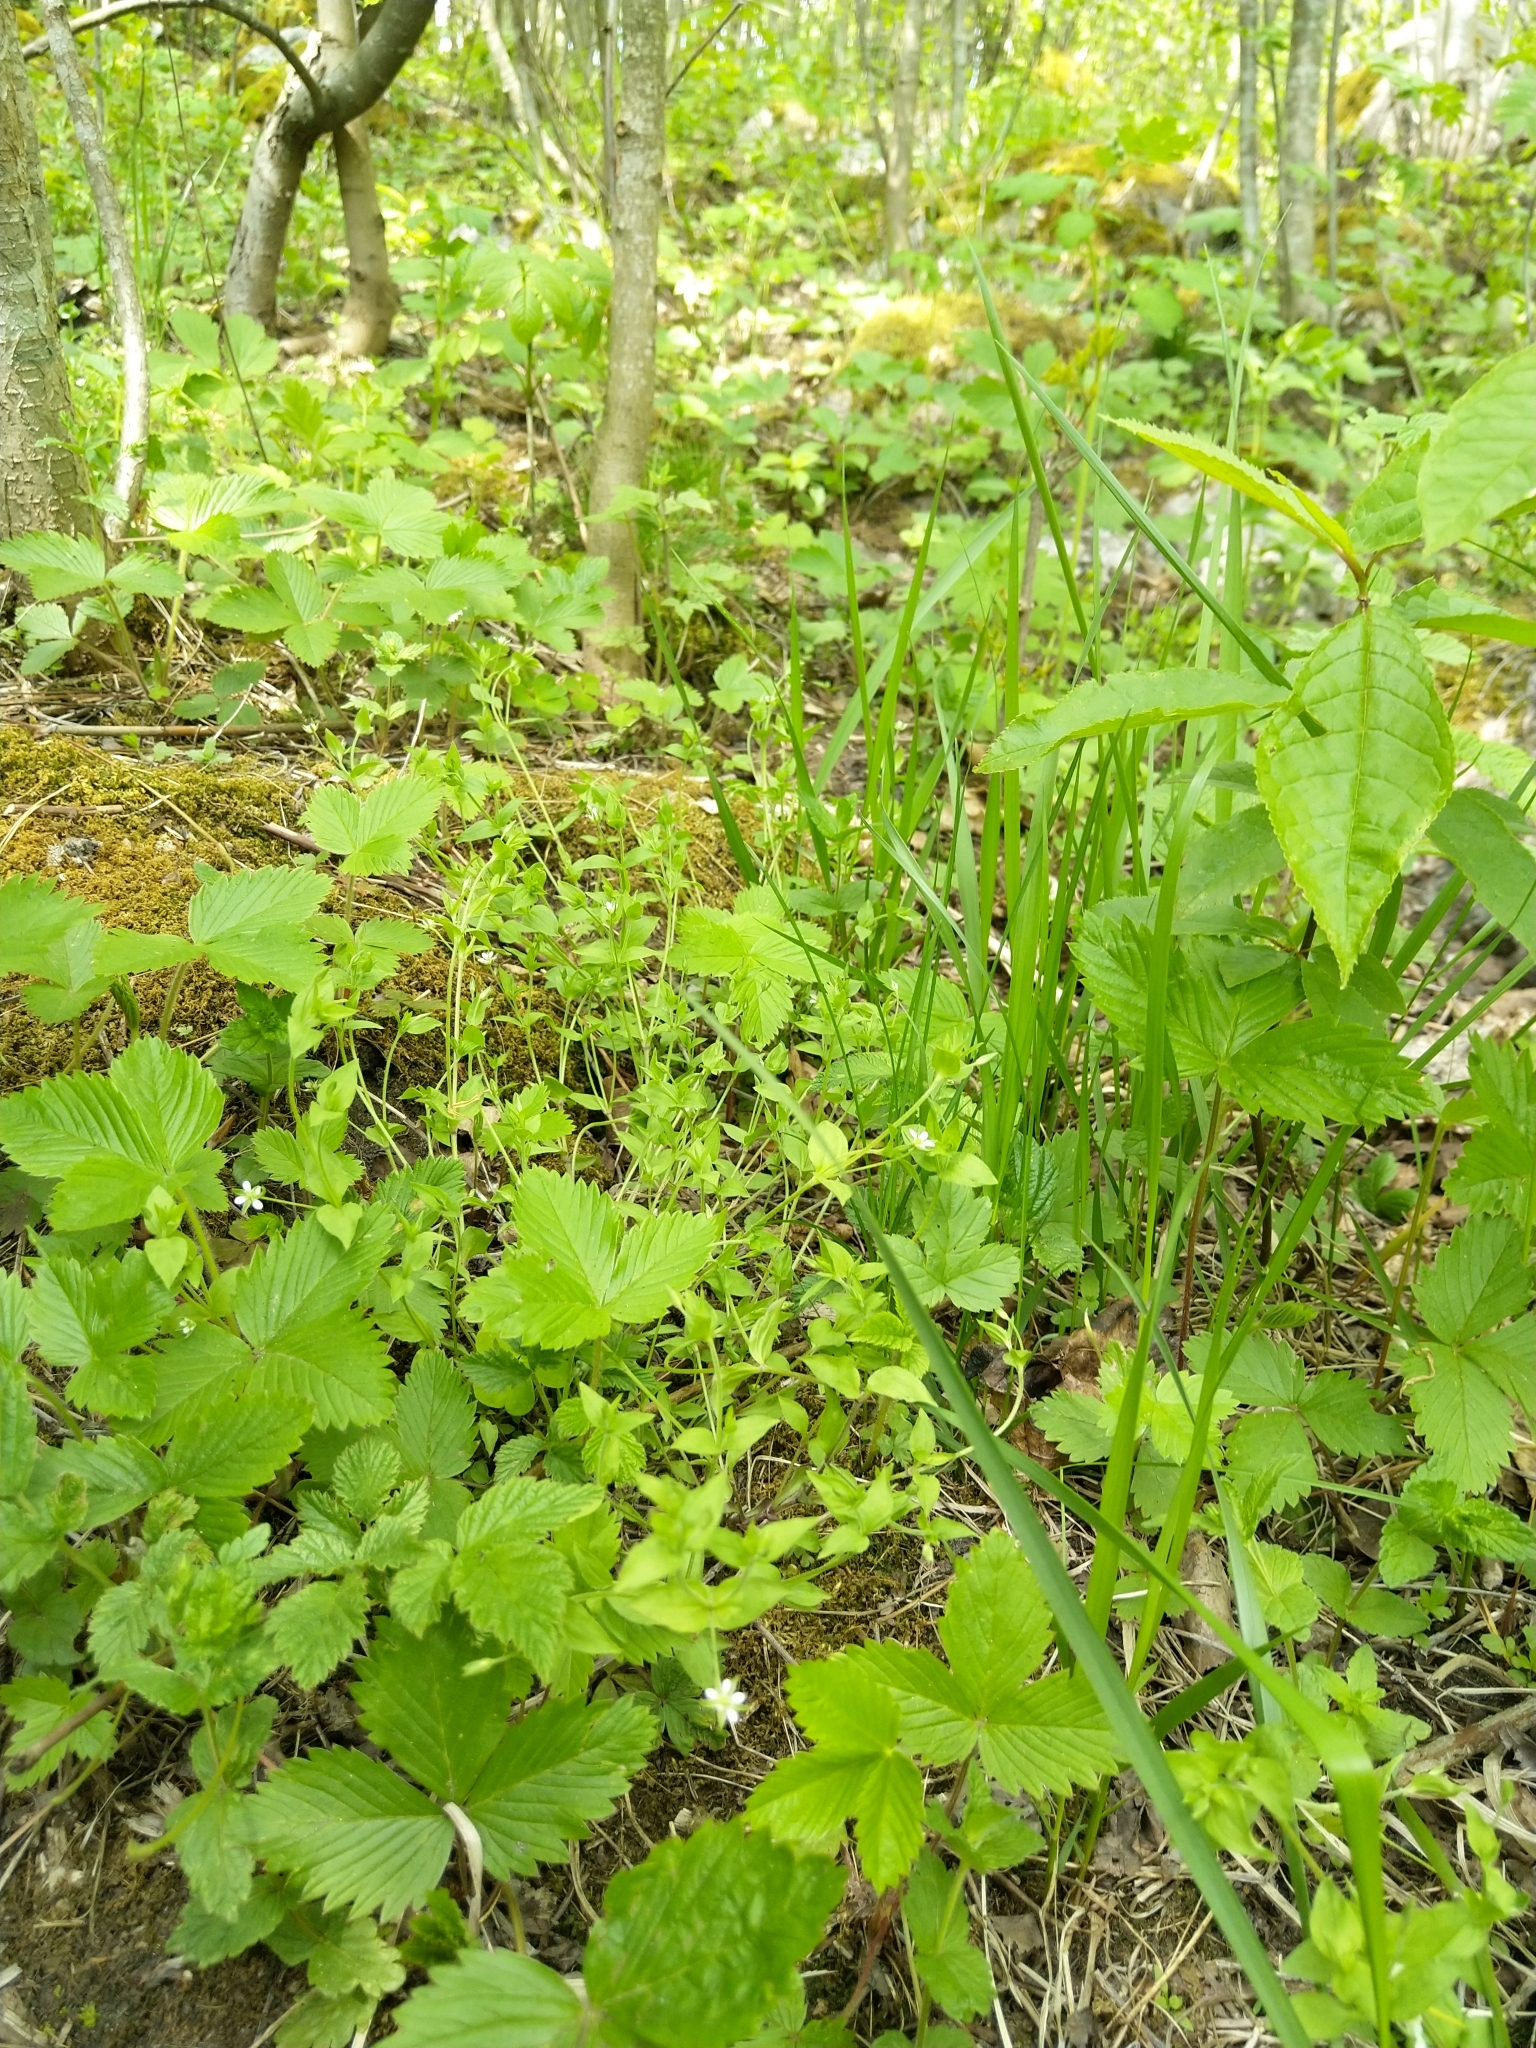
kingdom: Plantae
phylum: Tracheophyta
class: Magnoliopsida
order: Caryophyllales
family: Caryophyllaceae
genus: Moehringia
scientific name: Moehringia trinervia
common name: Three-nerved sandwort
